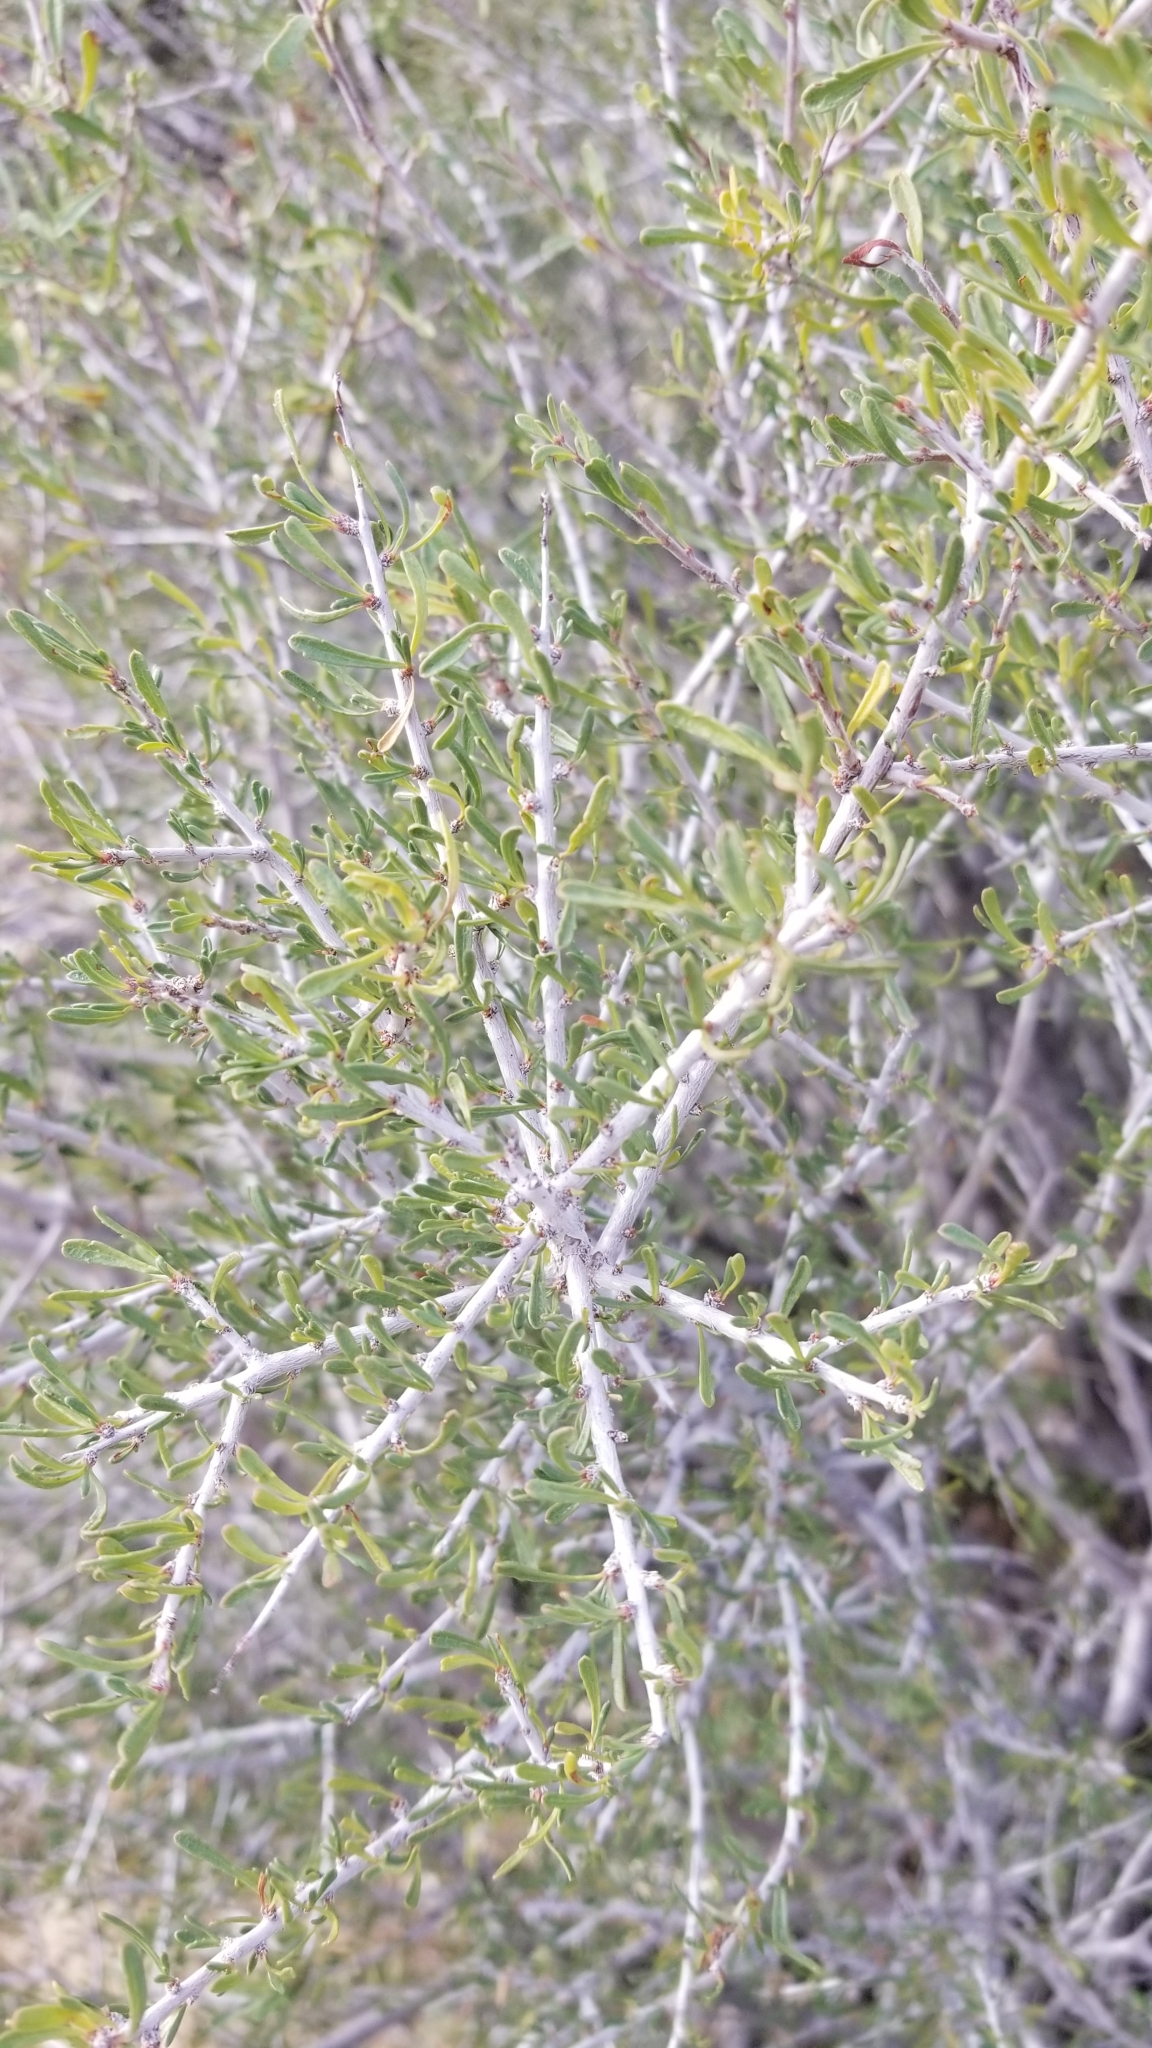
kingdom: Plantae
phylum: Tracheophyta
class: Magnoliopsida
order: Rosales
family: Rosaceae
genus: Prunus
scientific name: Prunus fasciculata
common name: Desert almond
